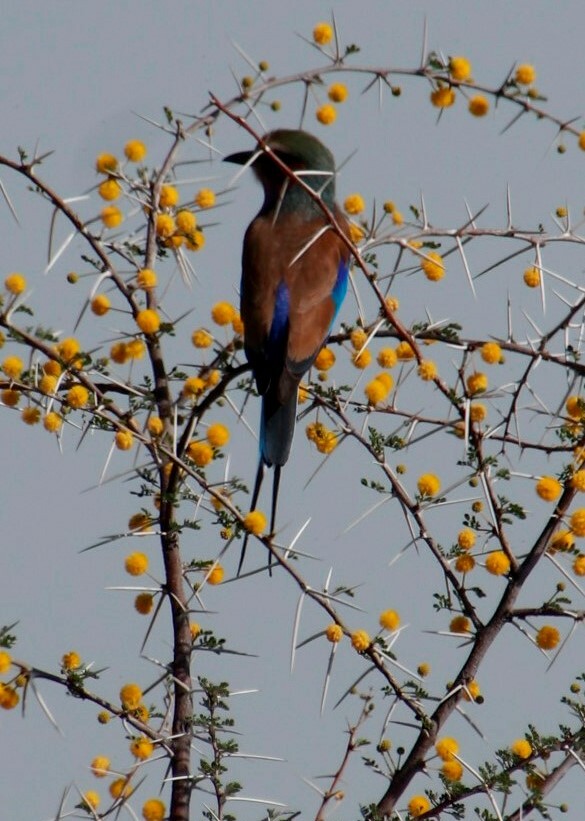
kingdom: Animalia
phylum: Chordata
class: Aves
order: Coraciiformes
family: Coraciidae
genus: Coracias
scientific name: Coracias caudatus
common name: Lilac-breasted roller
